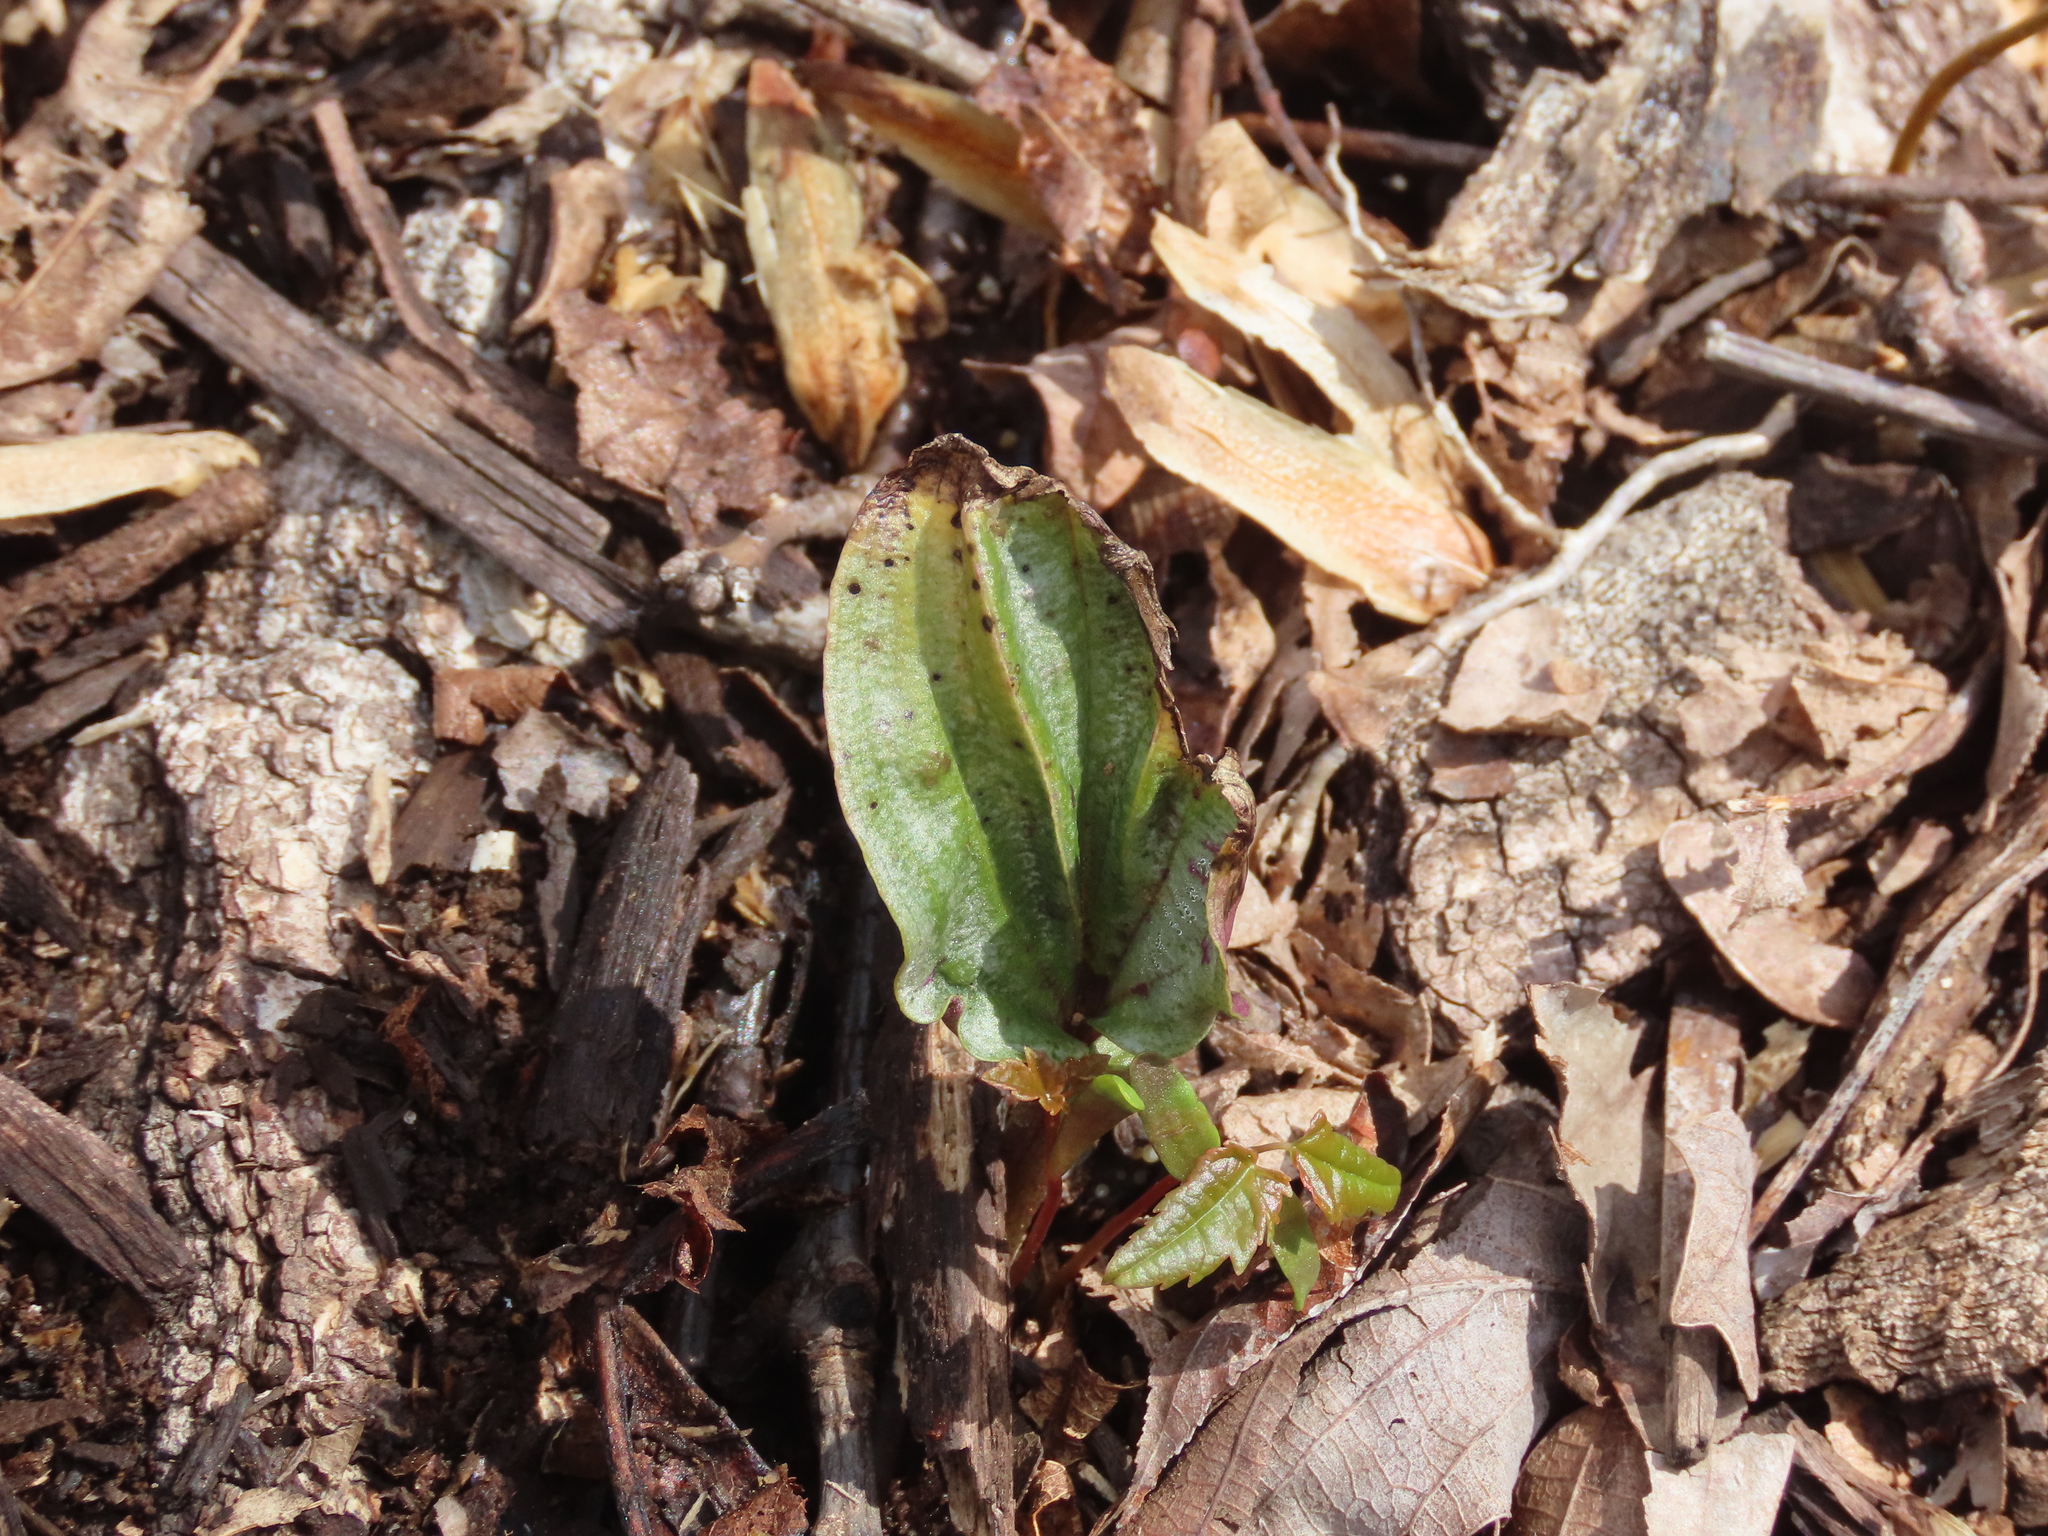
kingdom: Plantae
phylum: Tracheophyta
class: Liliopsida
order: Asparagales
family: Orchidaceae
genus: Tipularia
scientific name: Tipularia discolor
